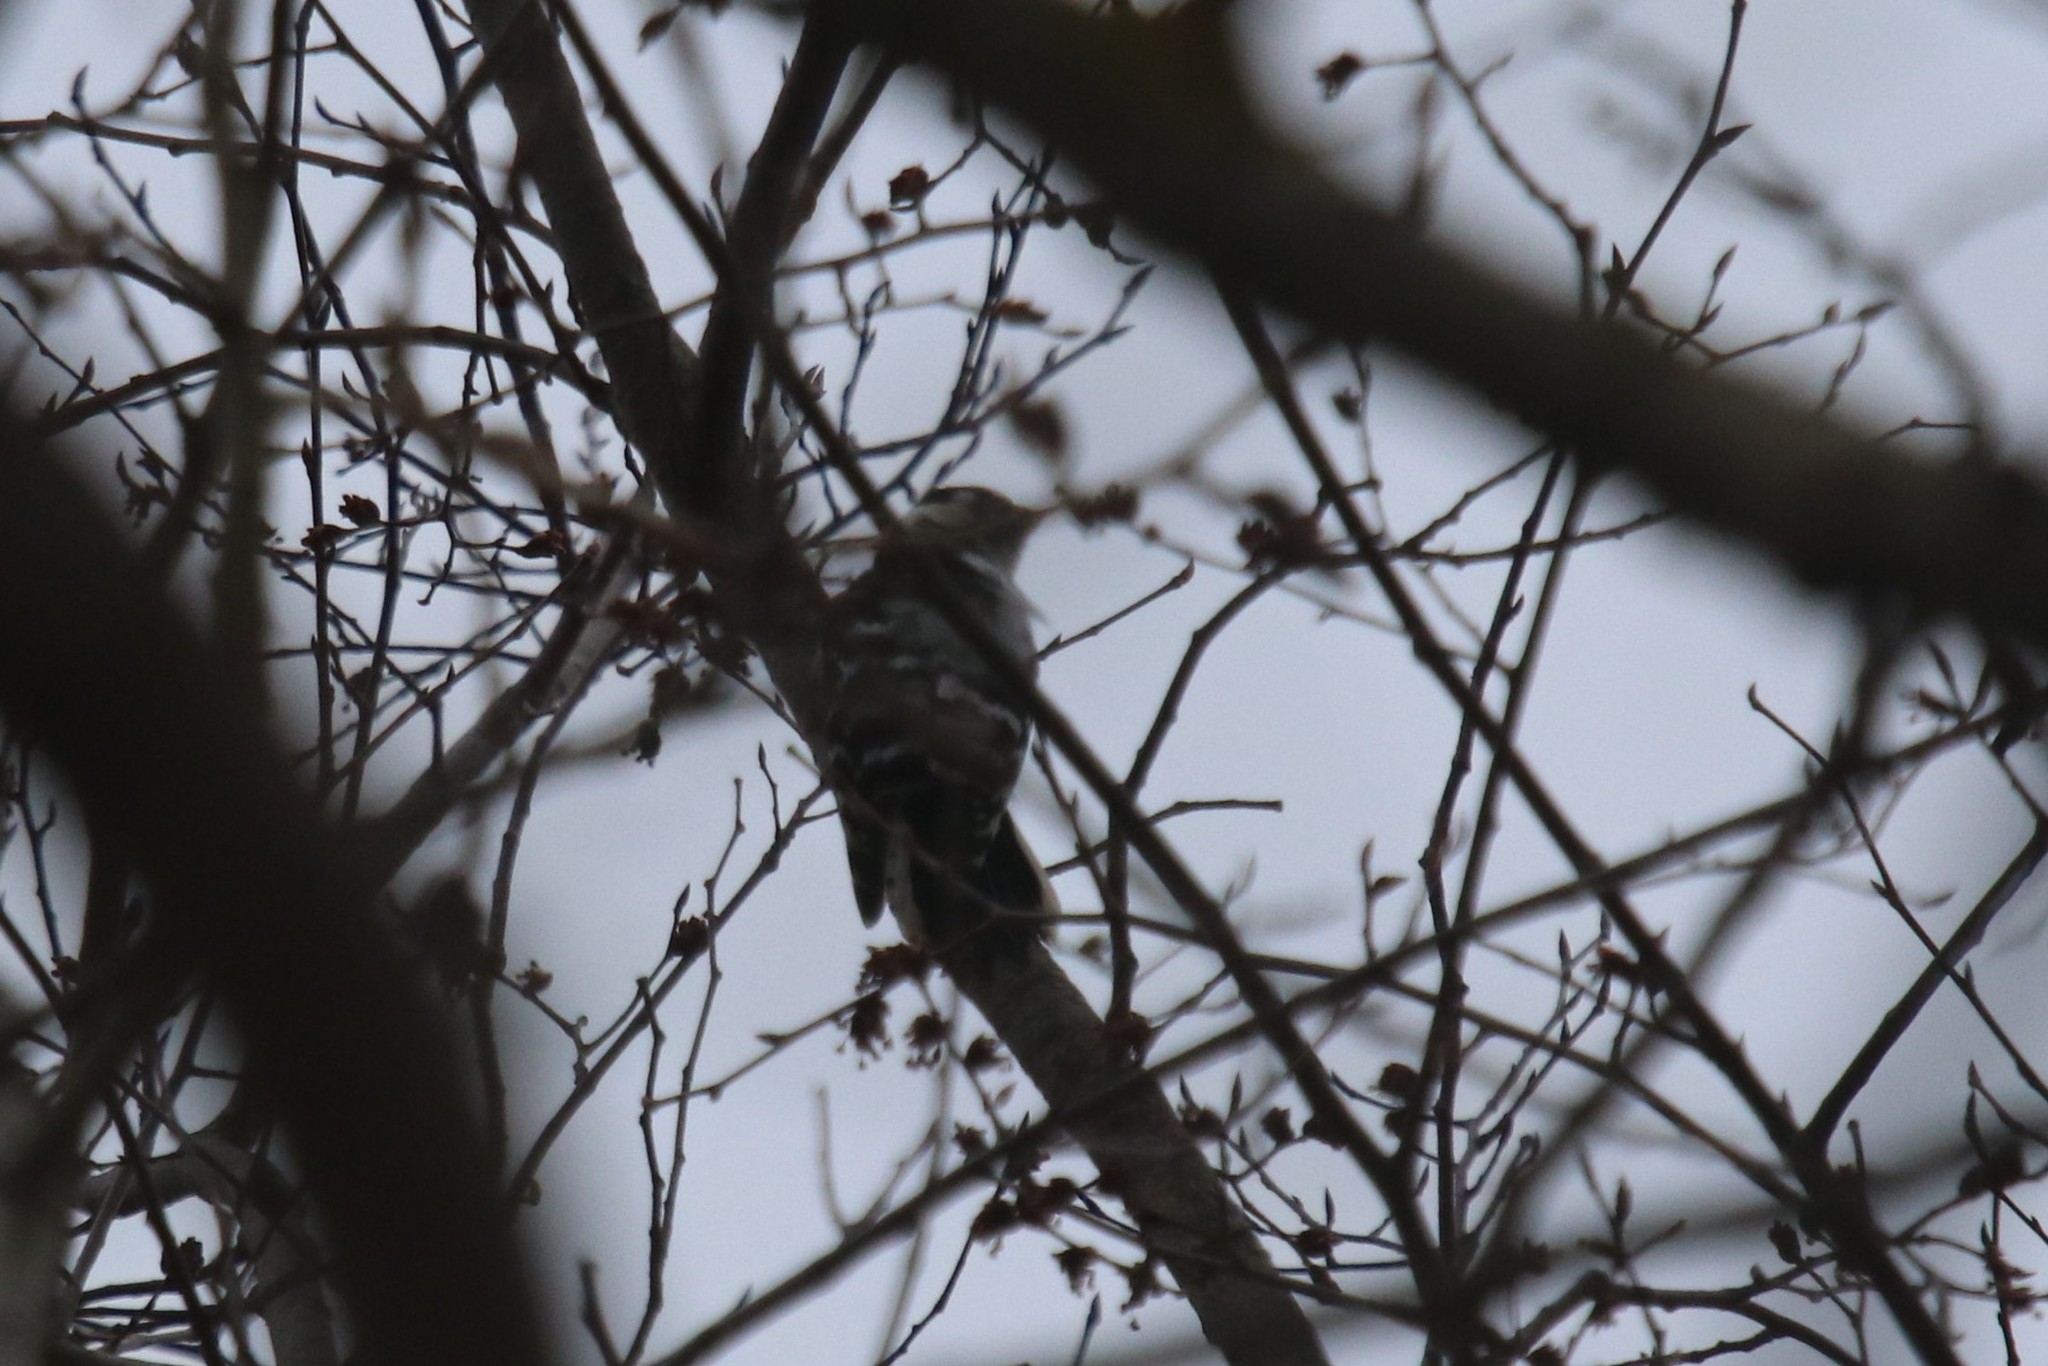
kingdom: Animalia
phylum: Chordata
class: Aves
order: Piciformes
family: Picidae
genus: Dryobates
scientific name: Dryobates minor
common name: Lesser spotted woodpecker
